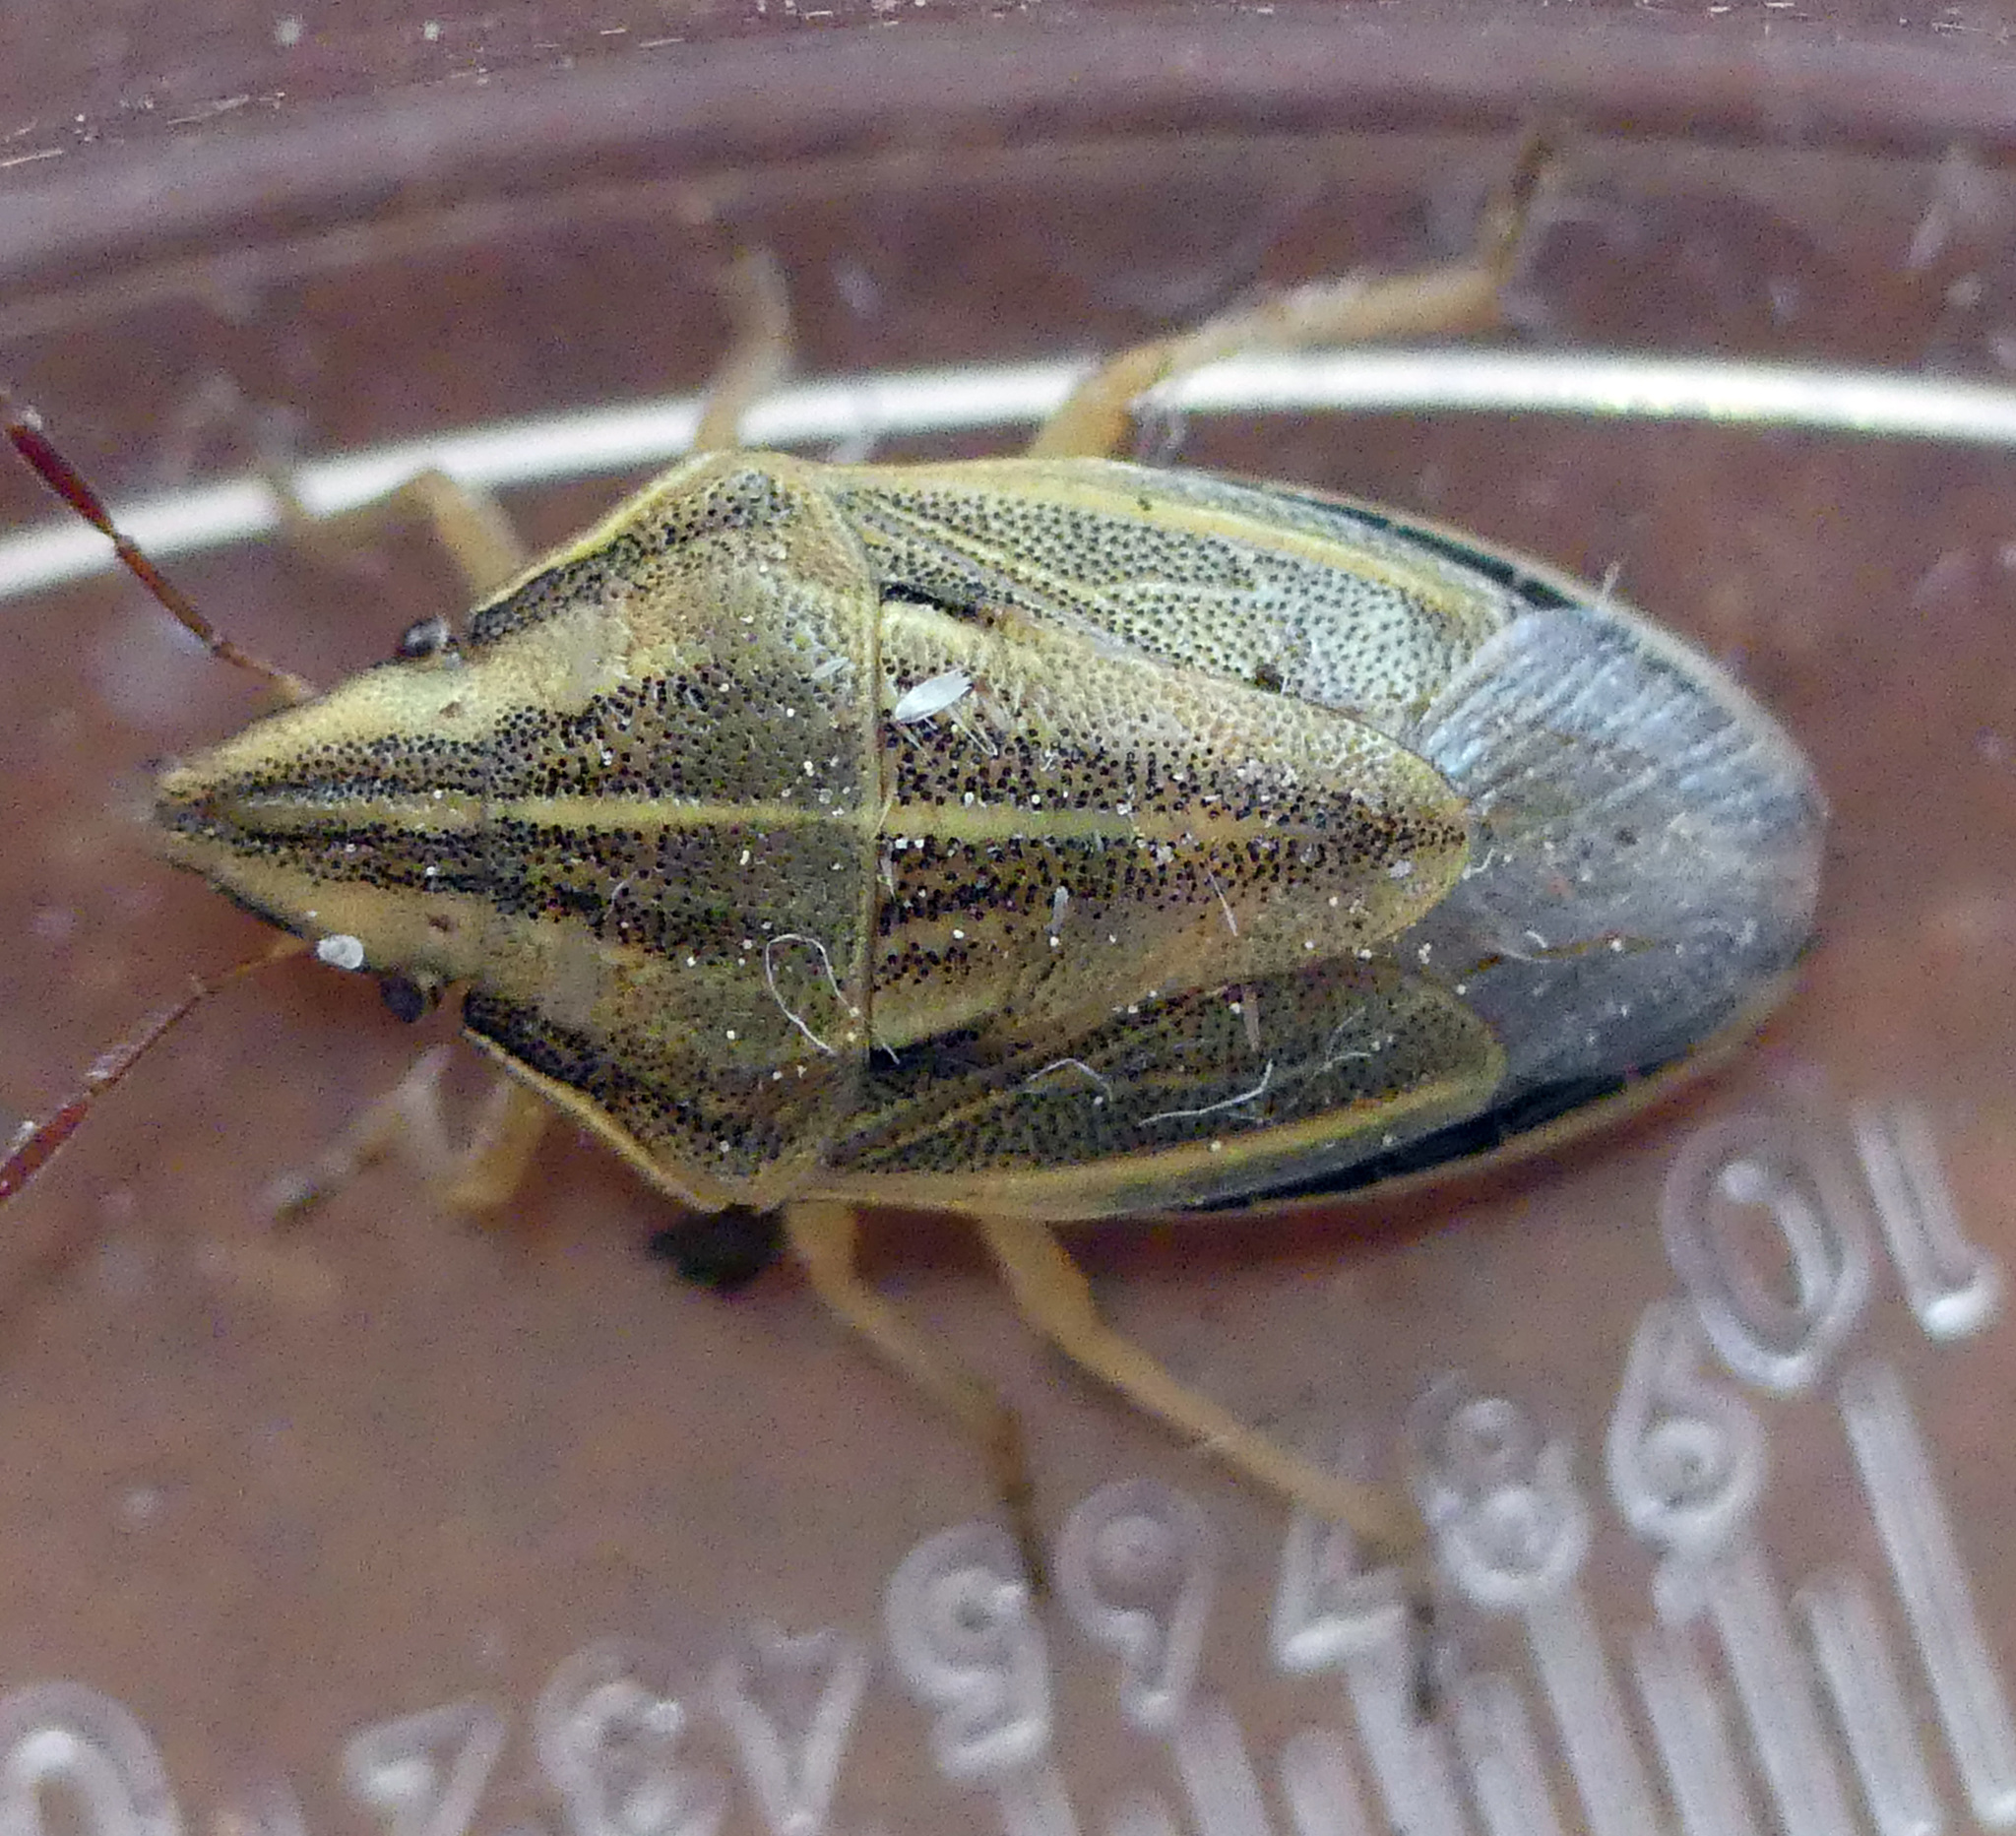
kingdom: Animalia
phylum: Arthropoda
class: Insecta
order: Hemiptera
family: Pentatomidae
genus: Aelia
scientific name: Aelia acuminata
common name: Bishop's mitre
